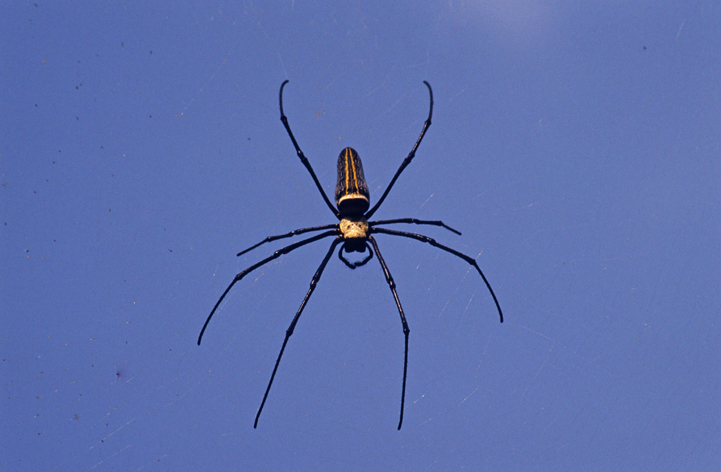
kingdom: Animalia
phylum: Arthropoda
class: Arachnida
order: Araneae
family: Araneidae
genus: Nephila
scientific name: Nephila pilipes
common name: Giant golden orb weaver
